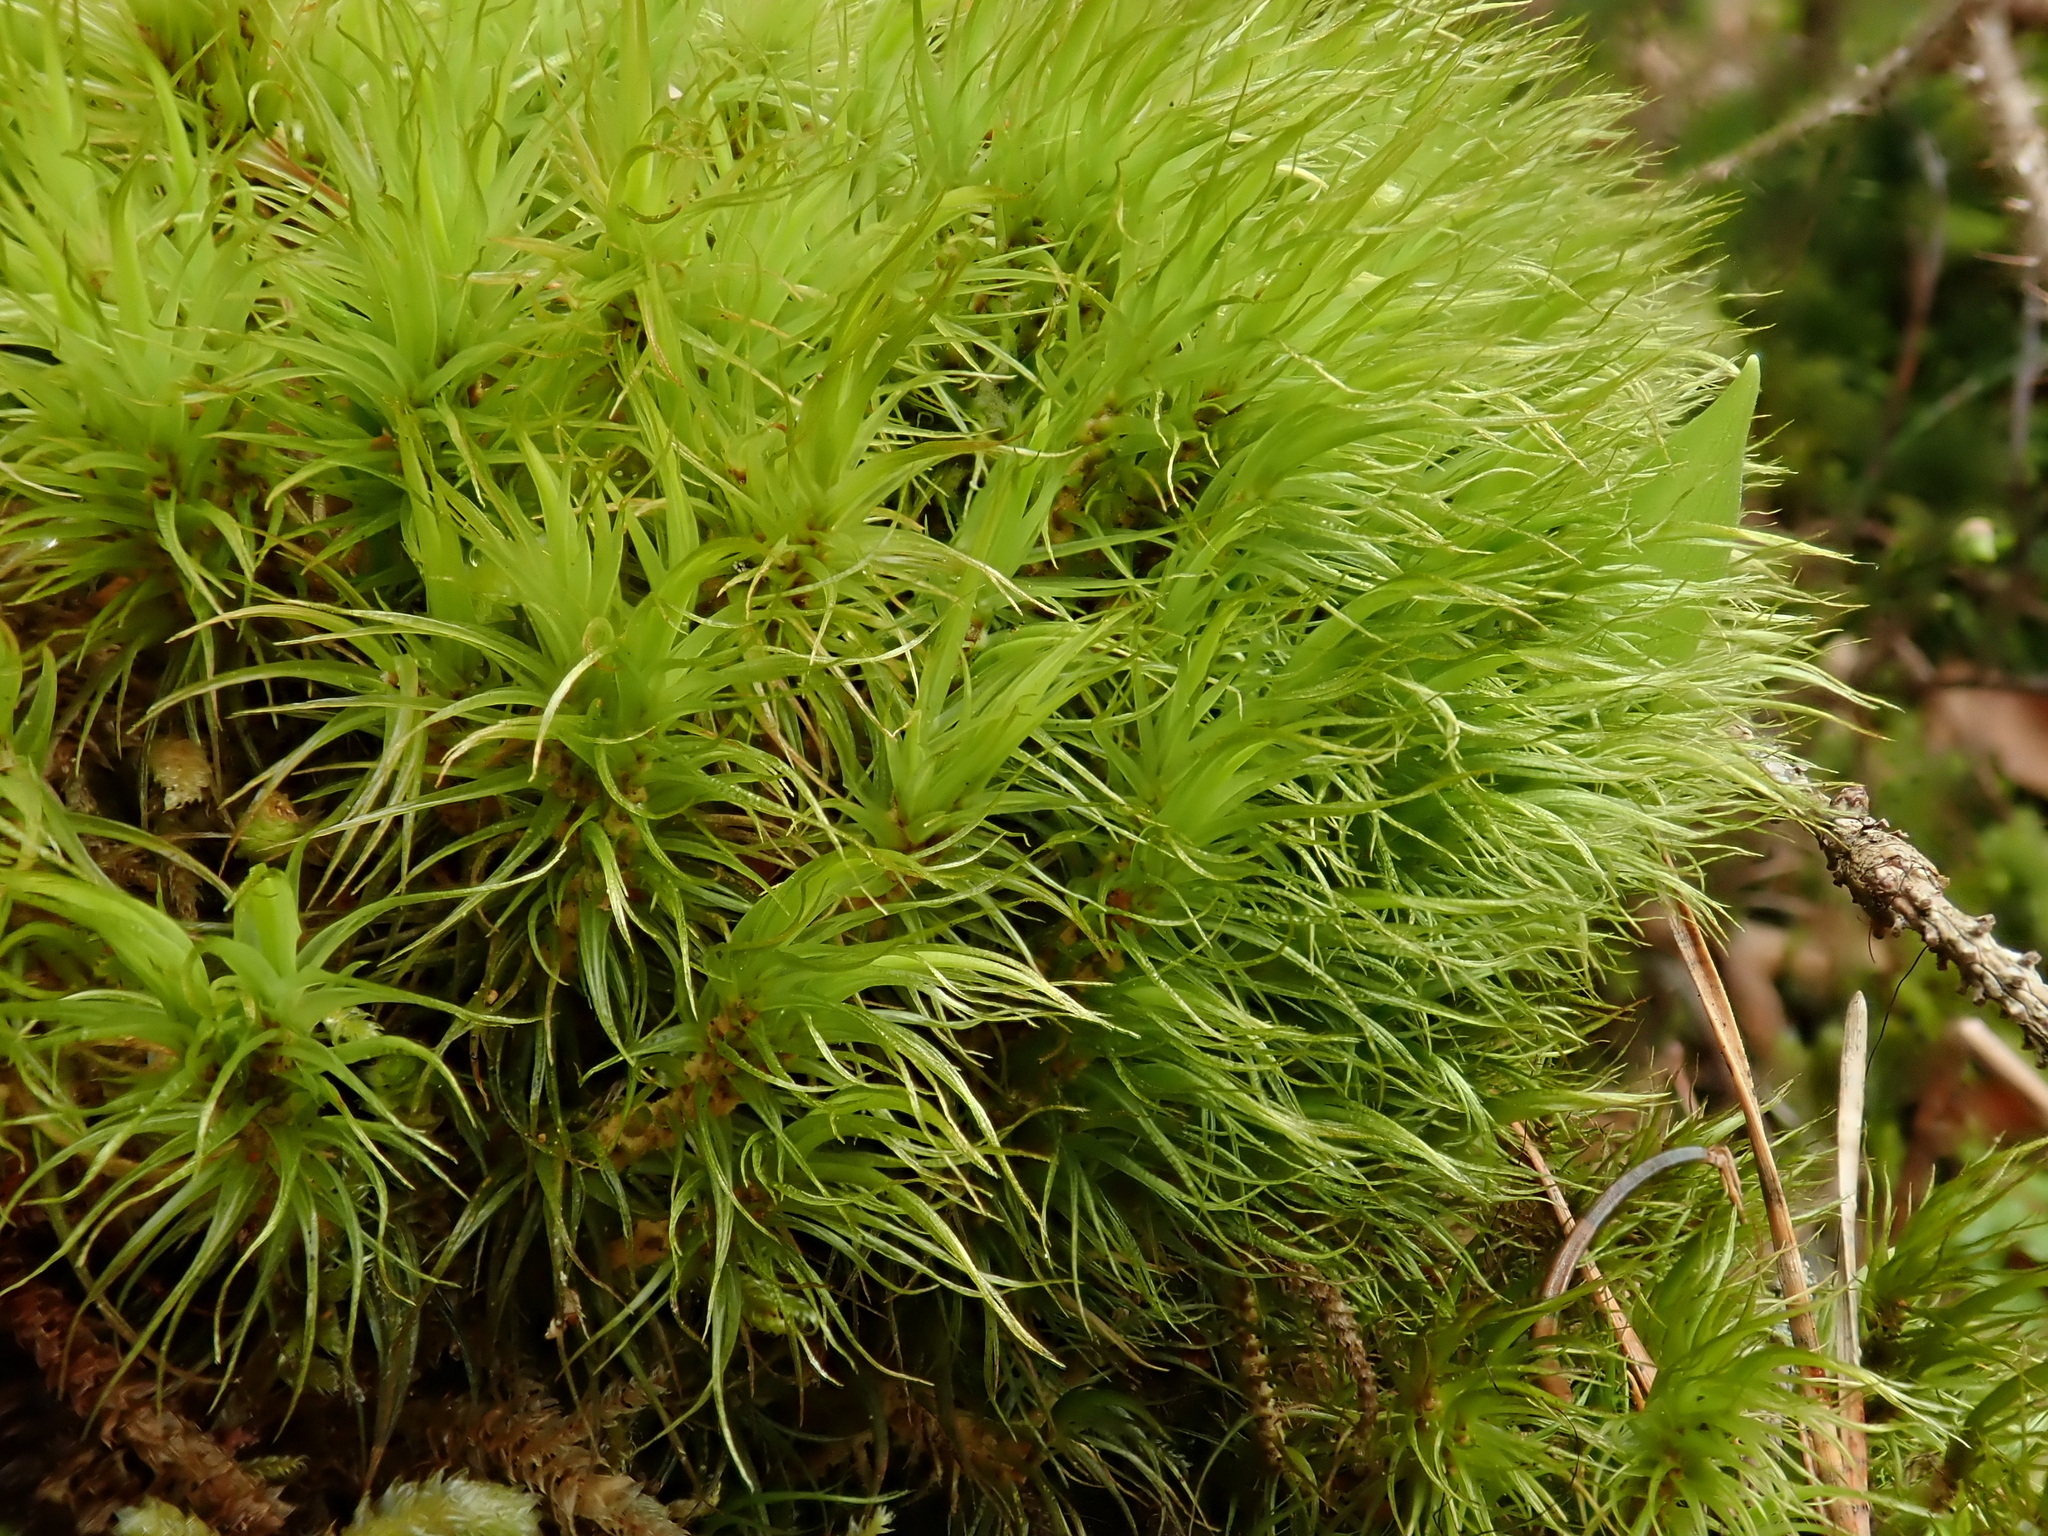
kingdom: Plantae
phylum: Bryophyta
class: Bryopsida
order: Dicranales
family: Dicranaceae
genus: Dicranum
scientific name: Dicranum scoparium
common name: Broom fork-moss
